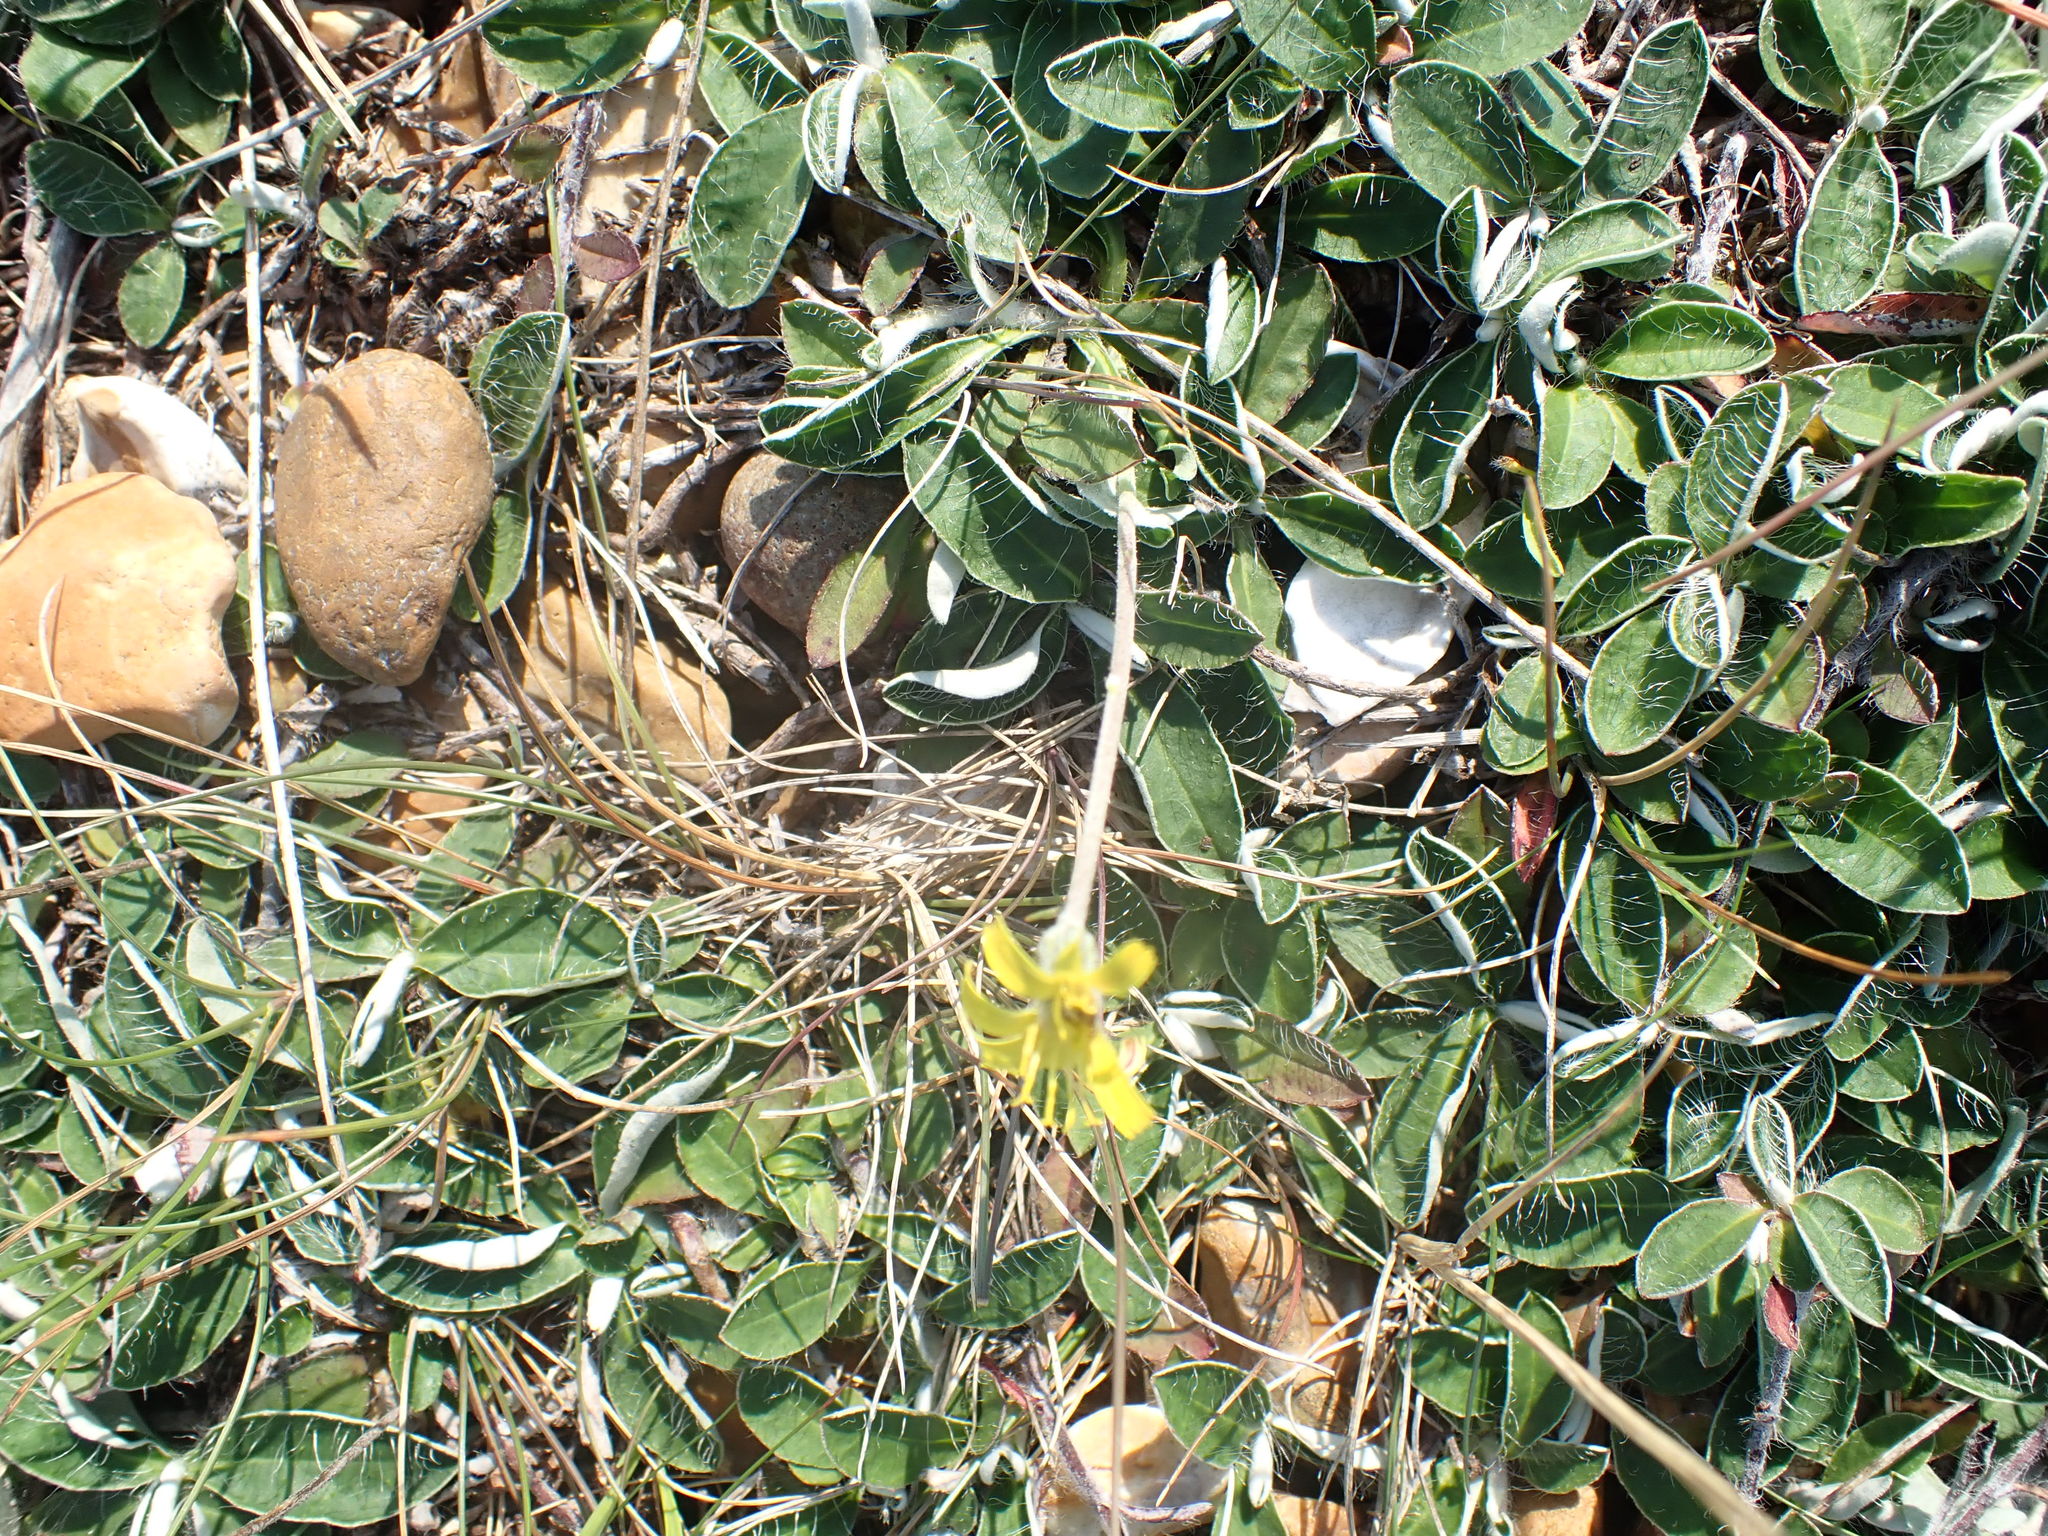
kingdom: Plantae
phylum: Tracheophyta
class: Magnoliopsida
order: Asterales
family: Asteraceae
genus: Pilosella
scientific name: Pilosella officinarum
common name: Mouse-ear hawkweed
